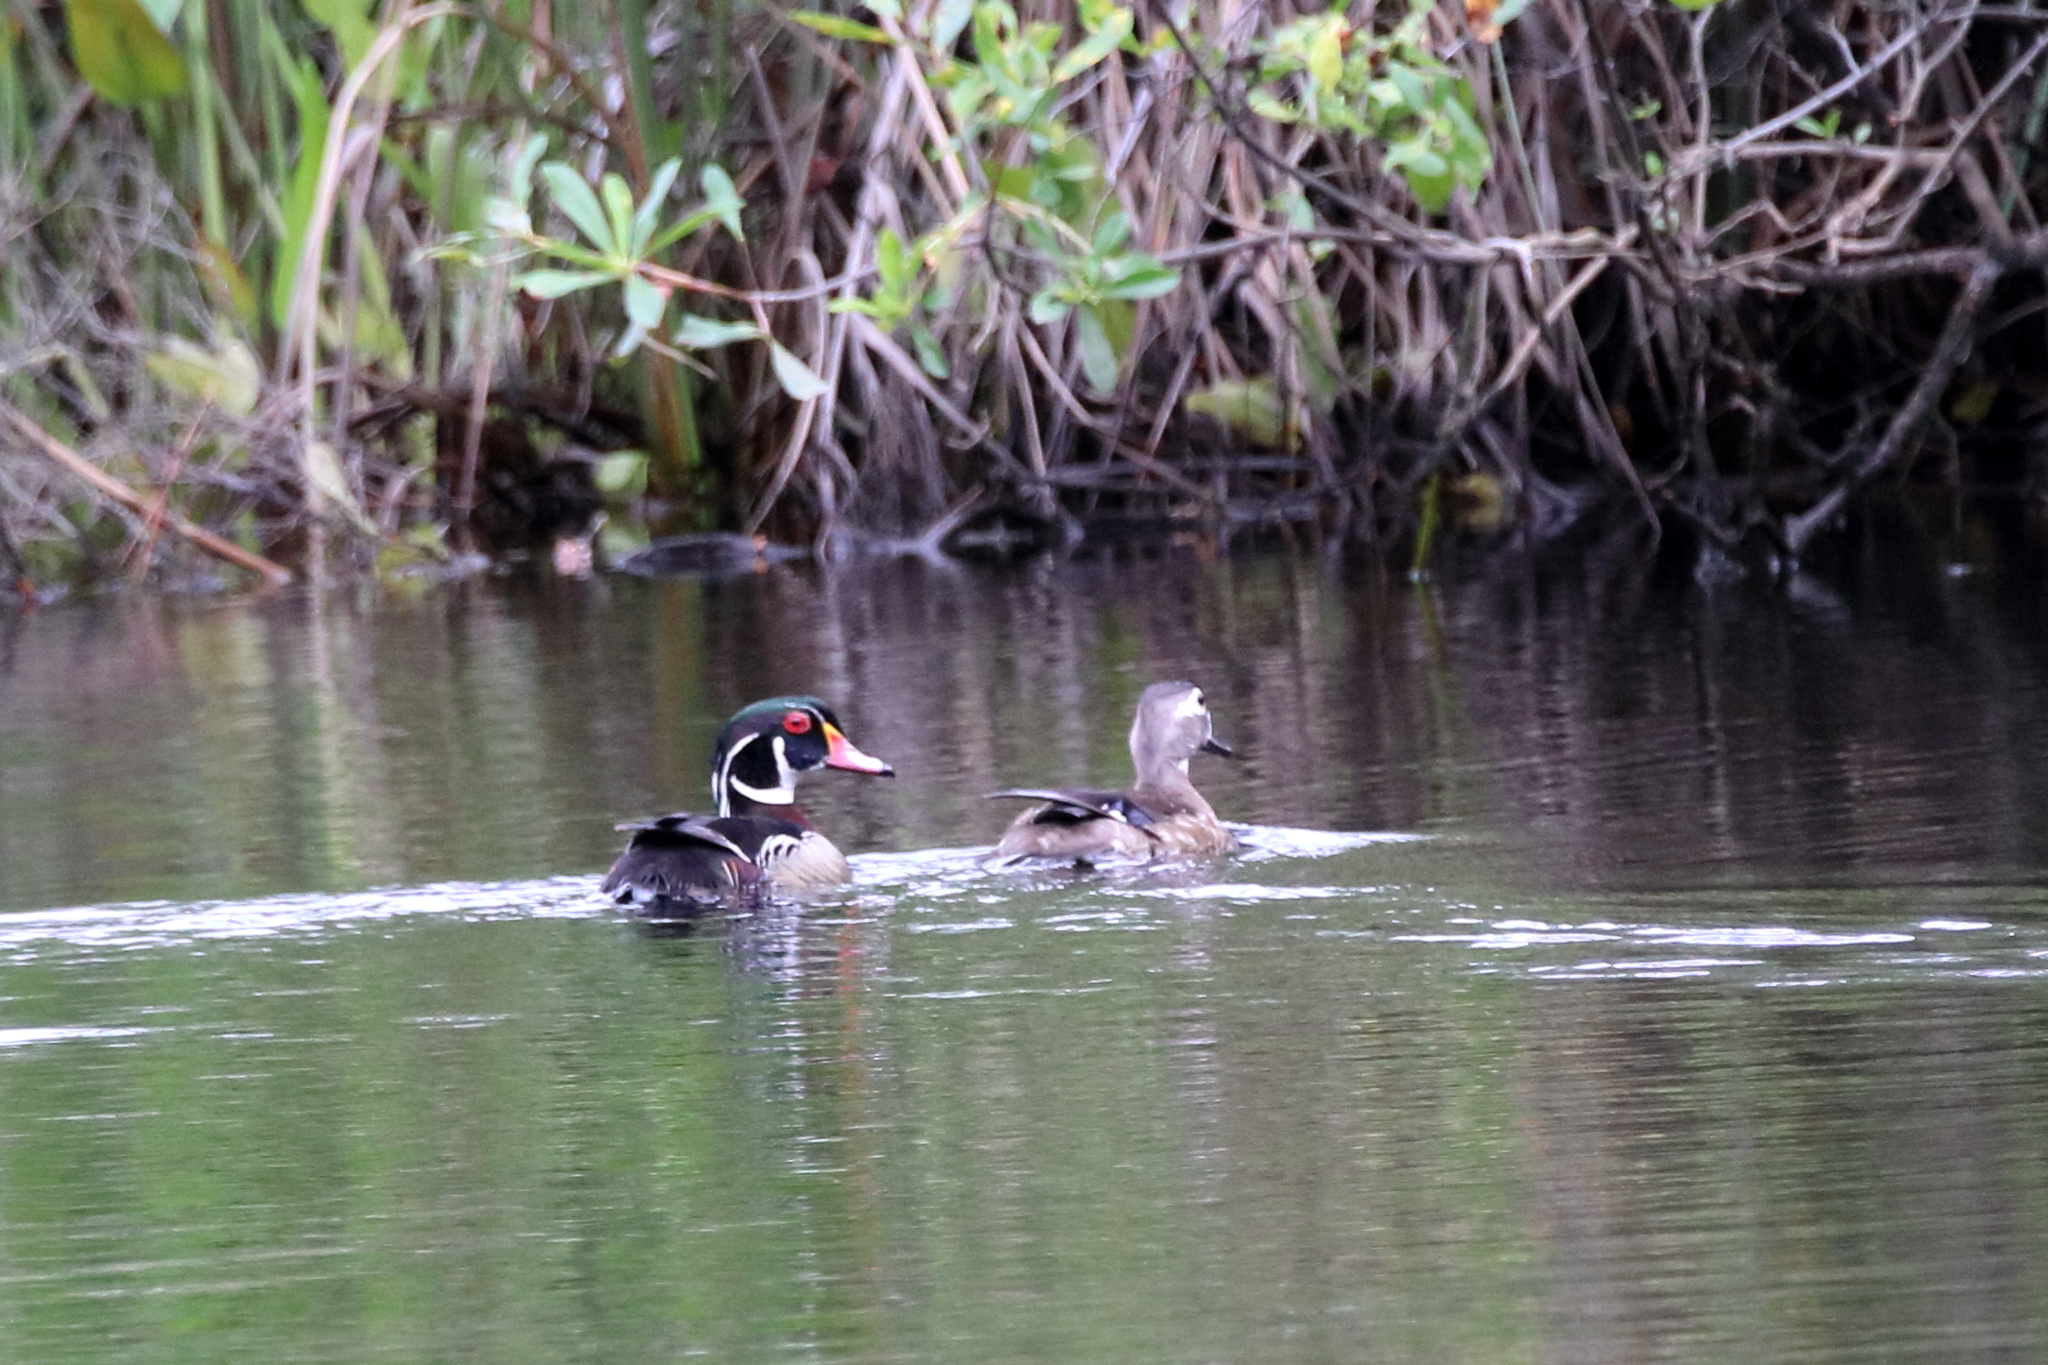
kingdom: Animalia
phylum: Chordata
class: Aves
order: Anseriformes
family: Anatidae
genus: Aix
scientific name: Aix sponsa
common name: Wood duck
